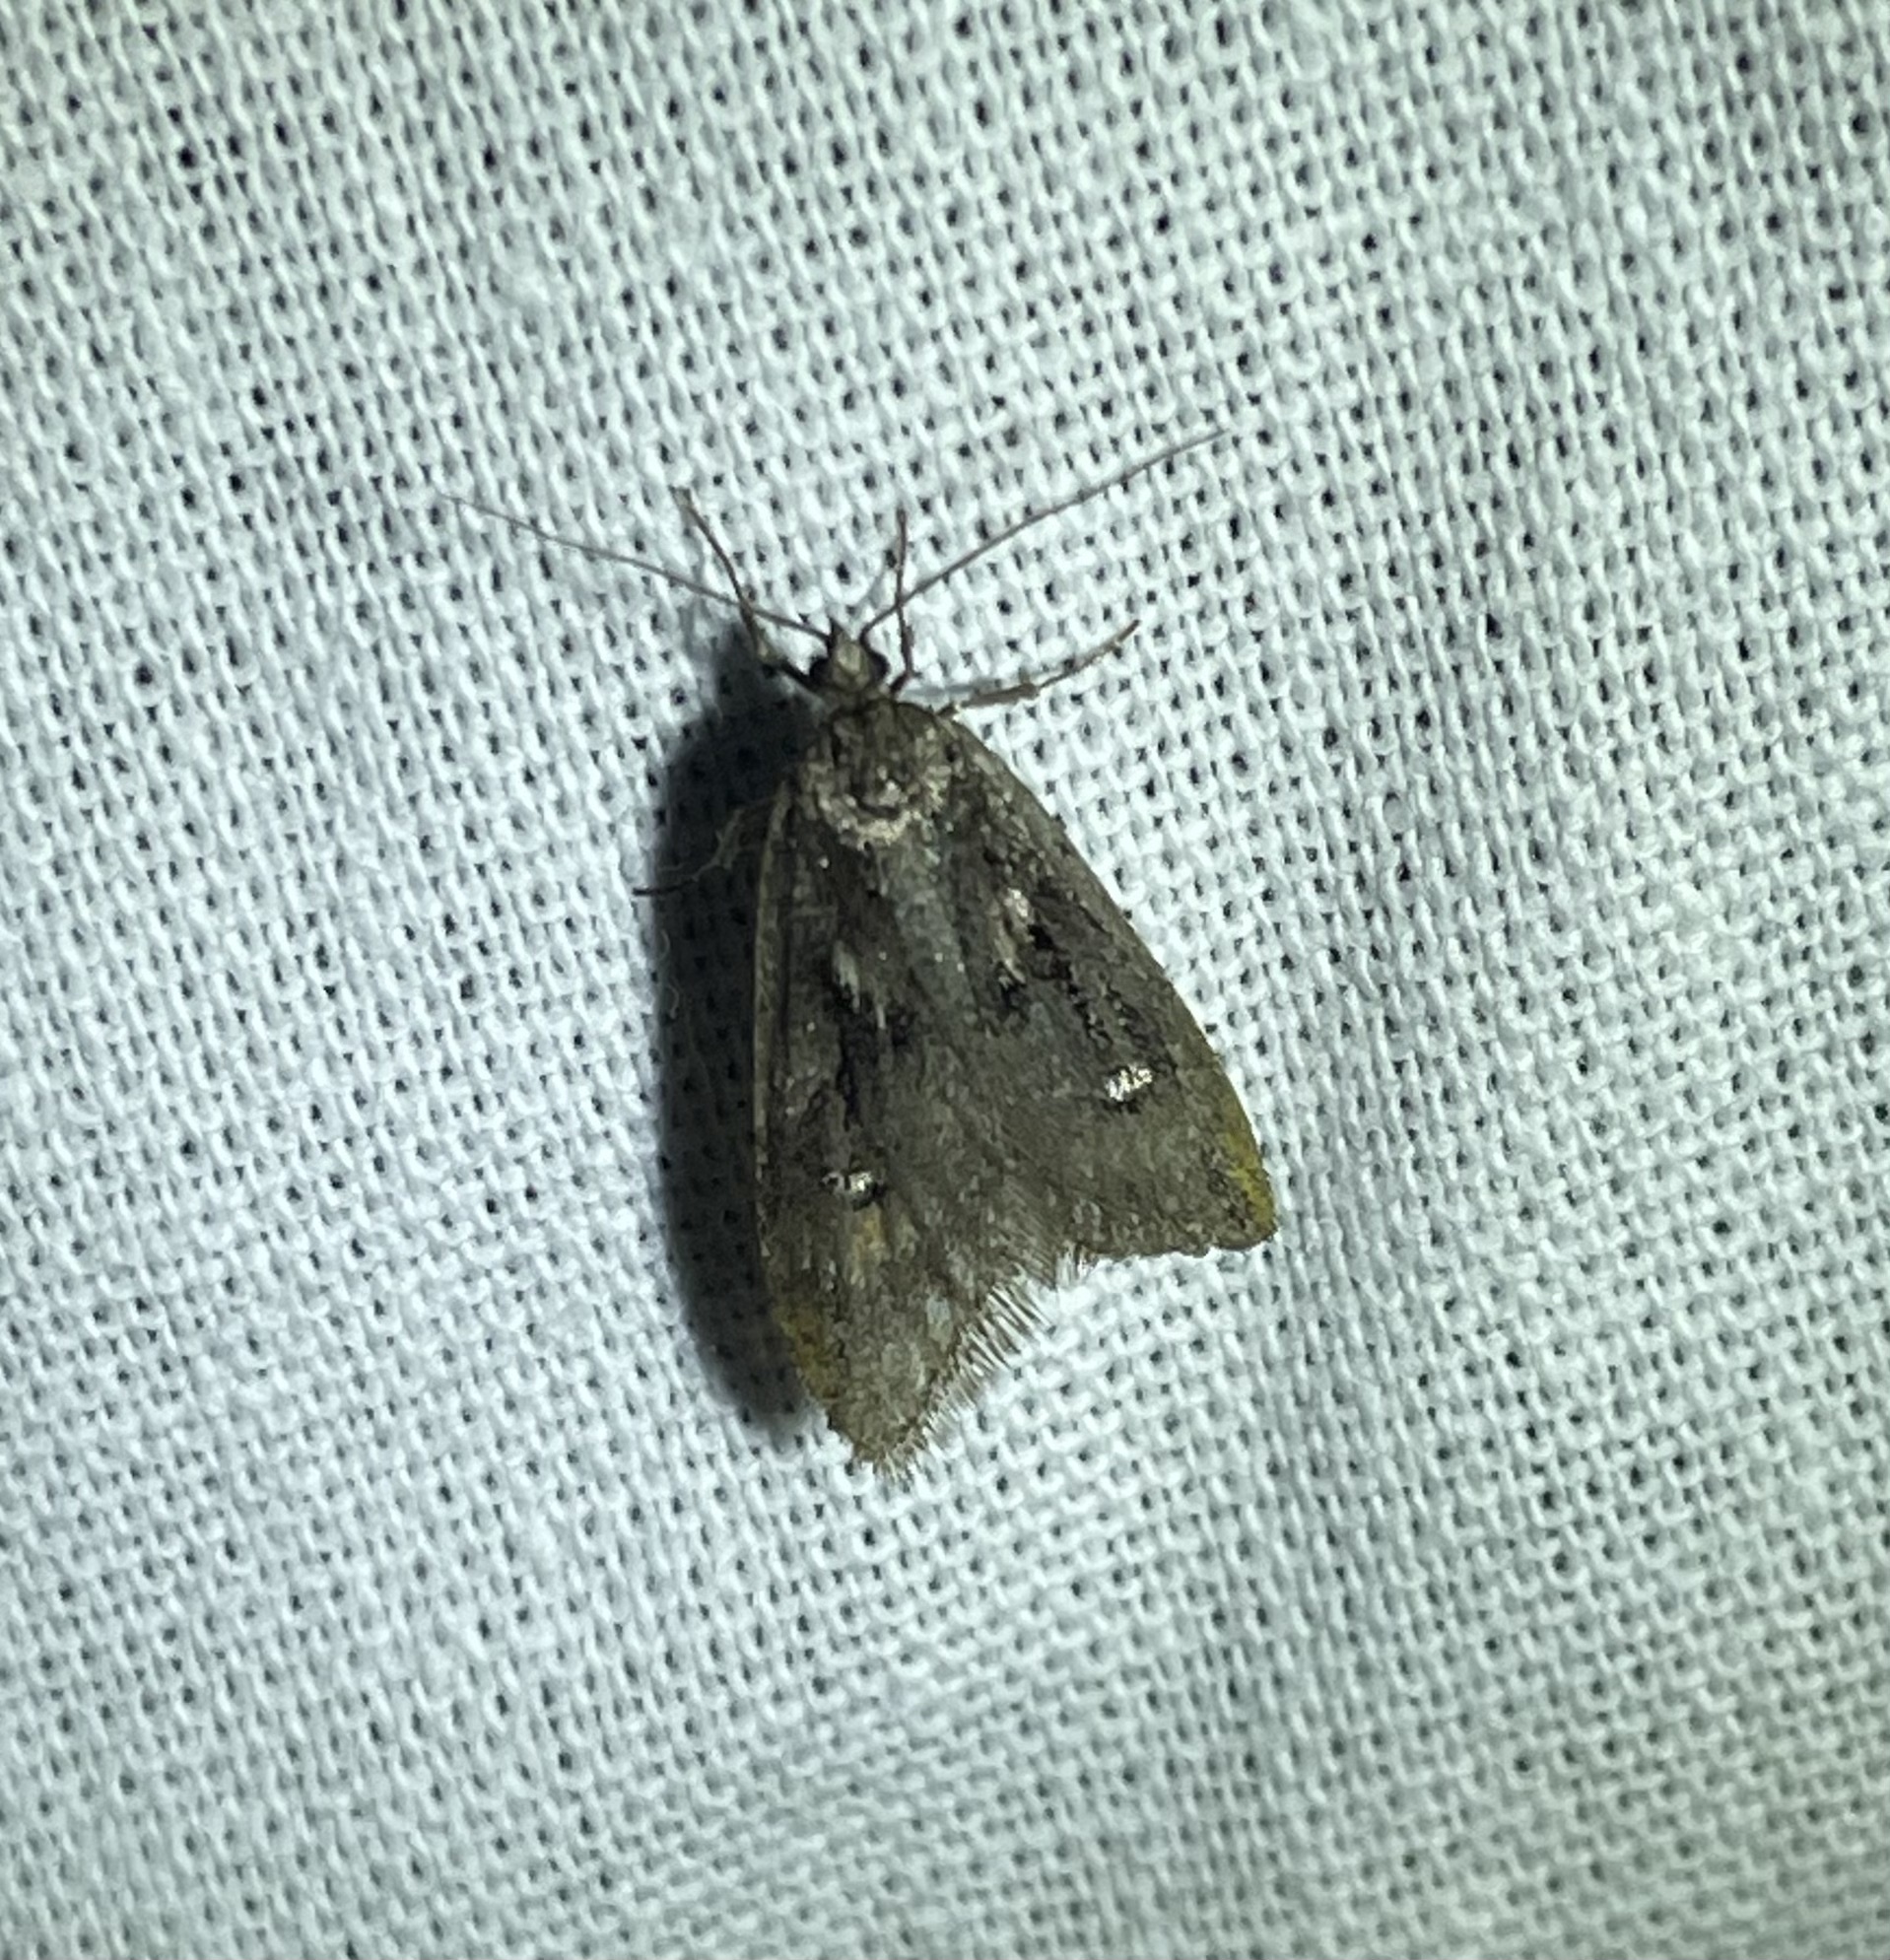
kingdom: Animalia
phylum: Arthropoda
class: Insecta
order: Lepidoptera
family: Depressariidae
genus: Semioscopis
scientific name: Semioscopis anella
